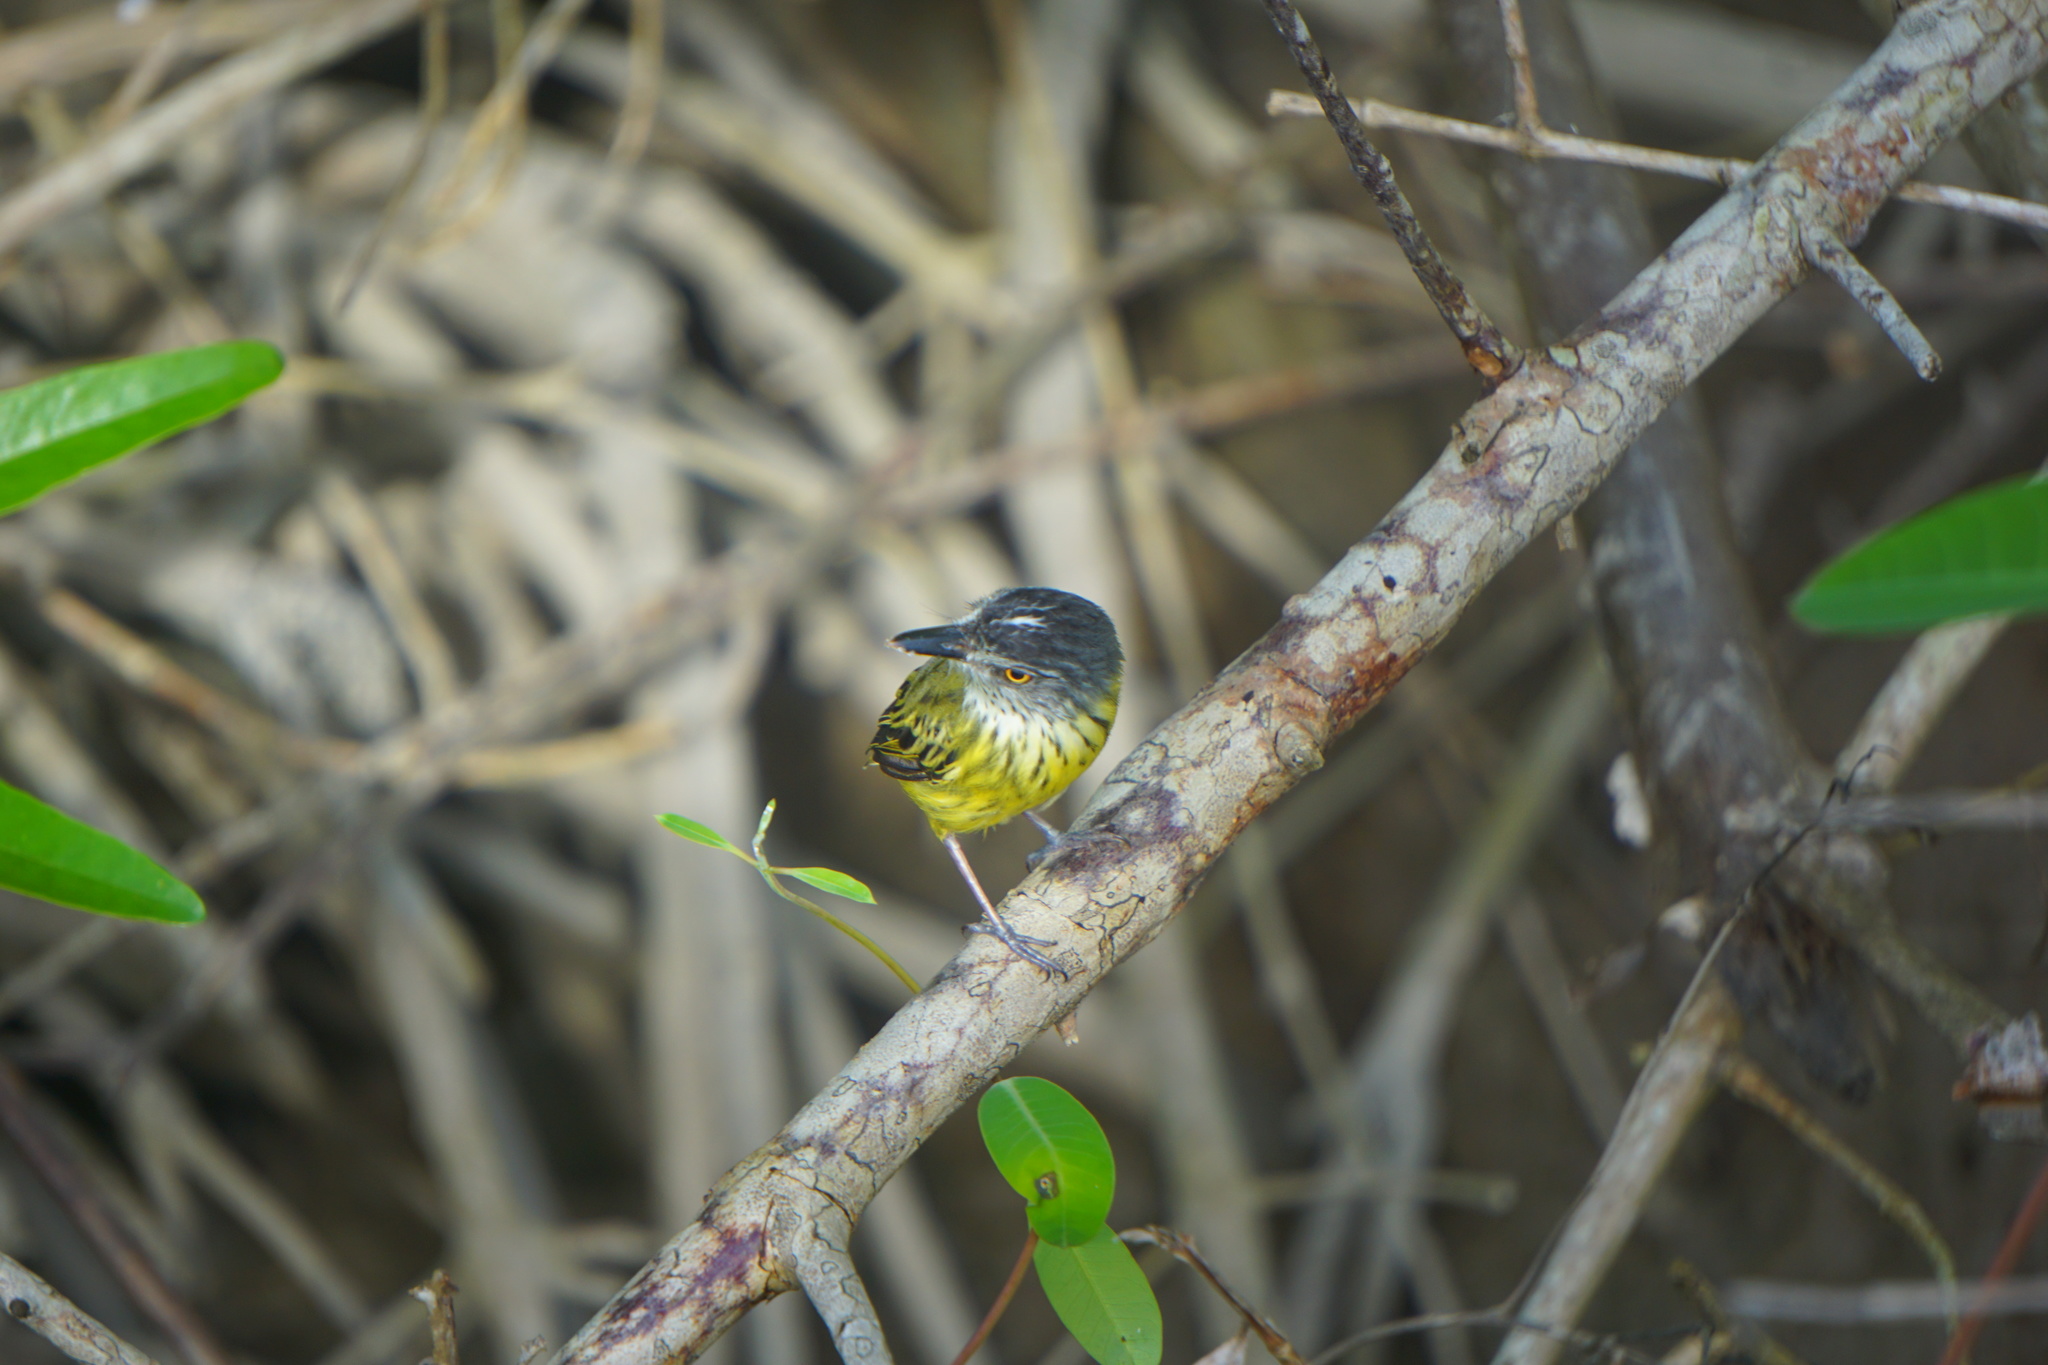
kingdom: Animalia
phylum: Chordata
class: Aves
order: Passeriformes
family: Tyrannidae
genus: Todirostrum
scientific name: Todirostrum maculatum
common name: Spotted tody-flycatcher
